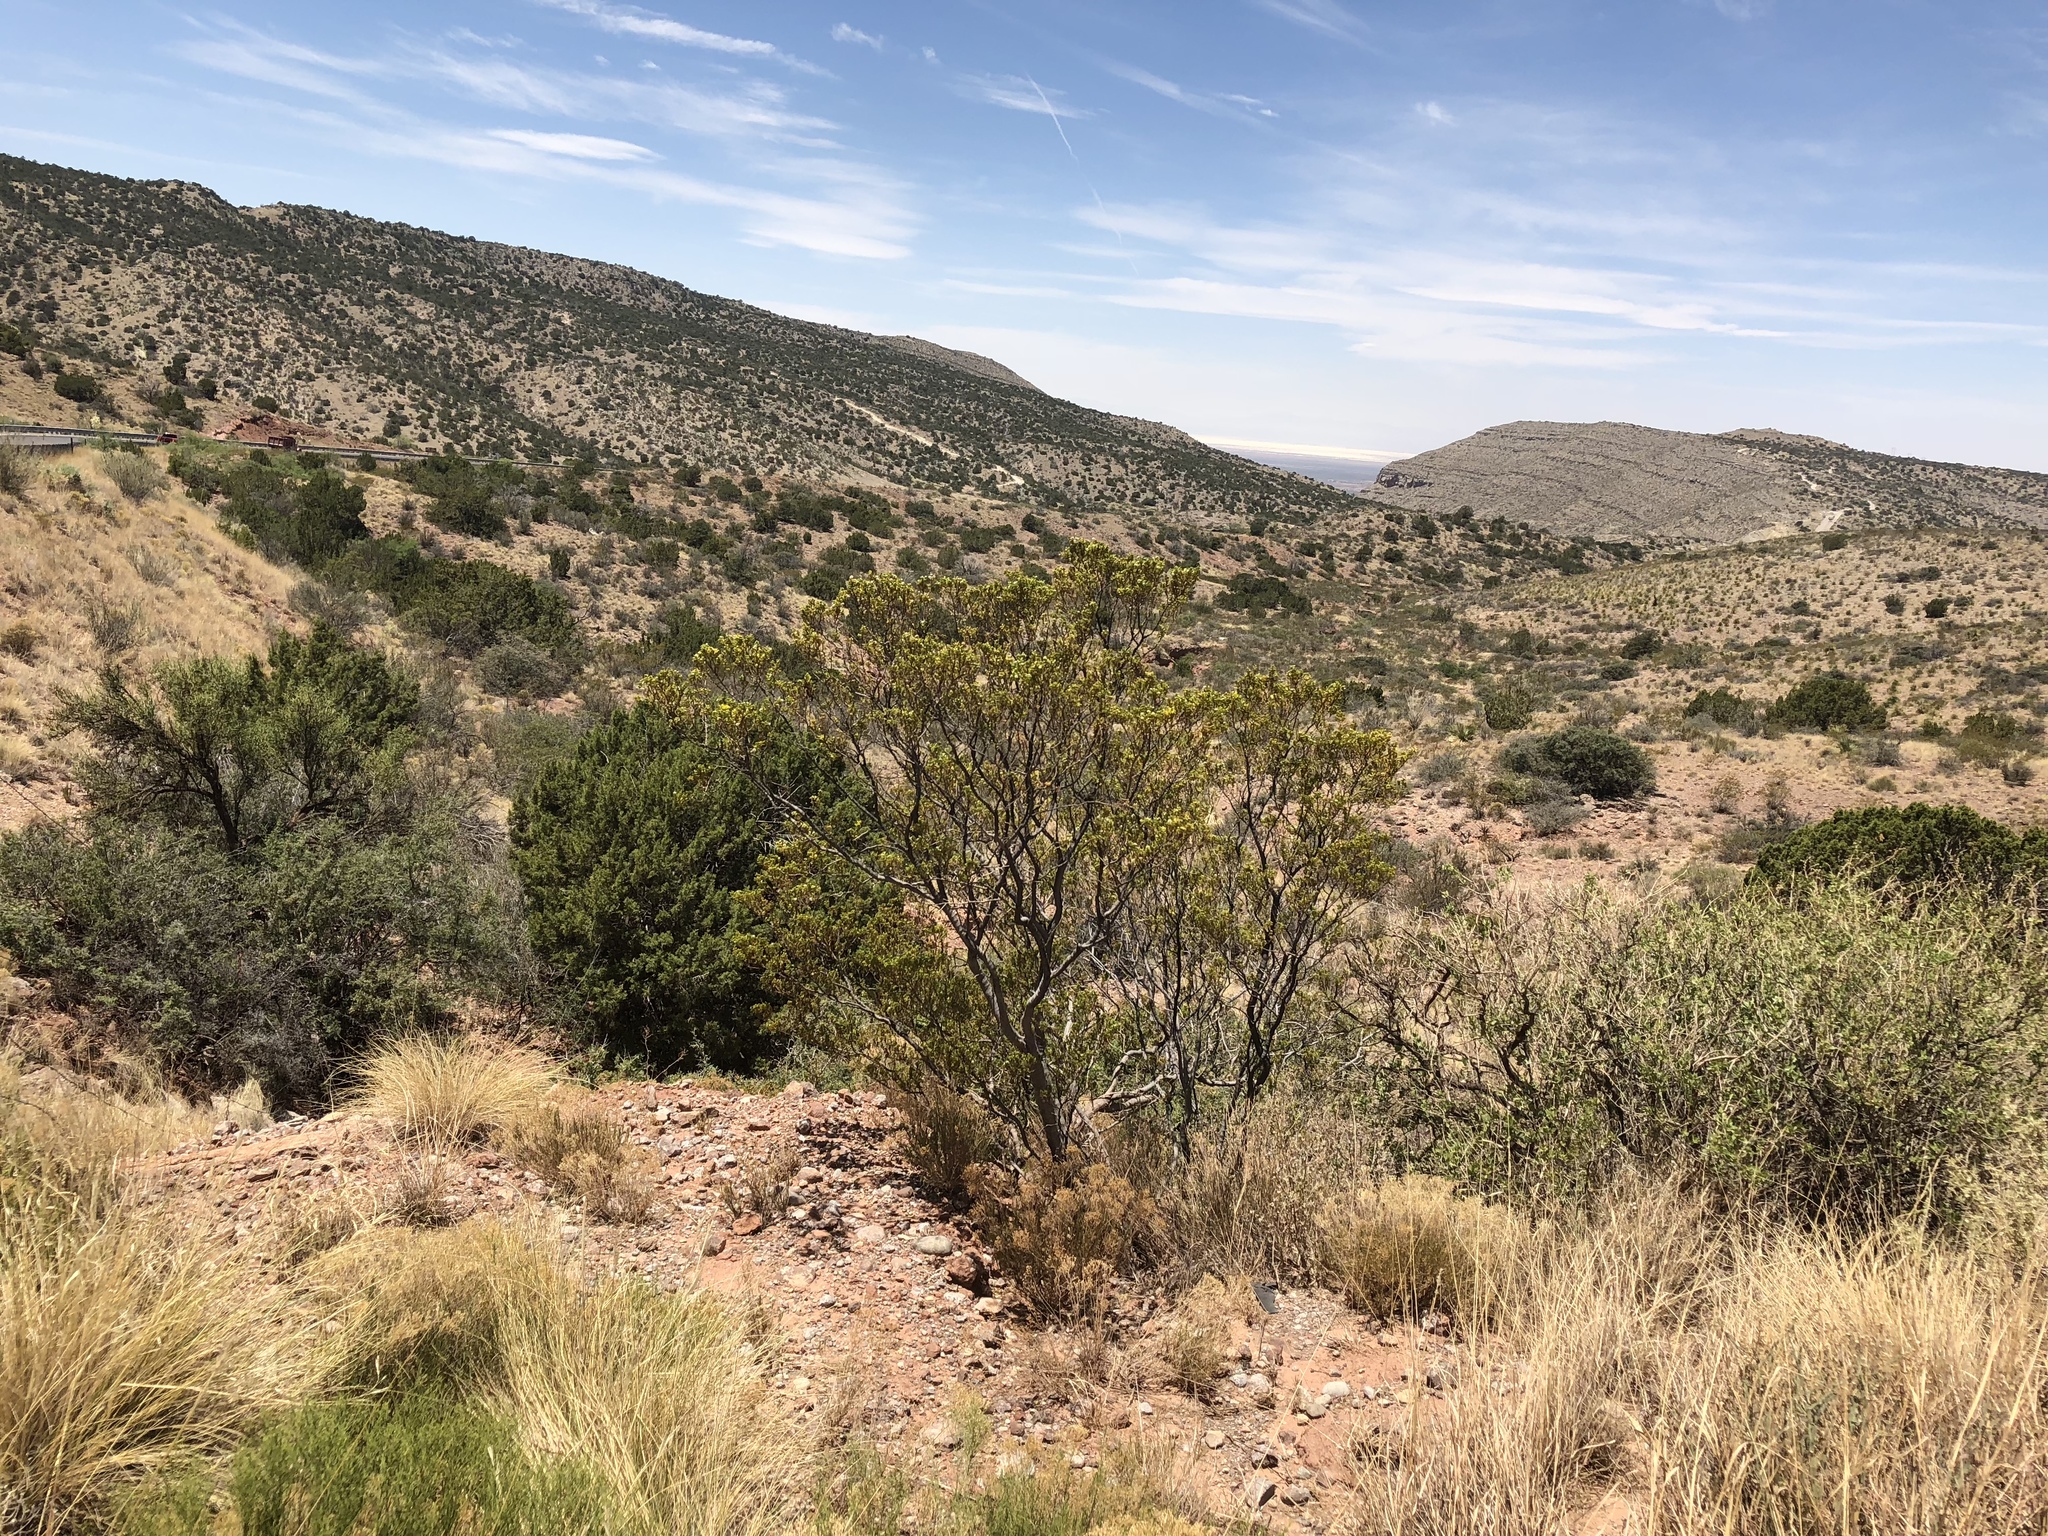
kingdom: Plantae
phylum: Tracheophyta
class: Magnoliopsida
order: Zygophyllales
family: Zygophyllaceae
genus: Larrea
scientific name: Larrea tridentata
